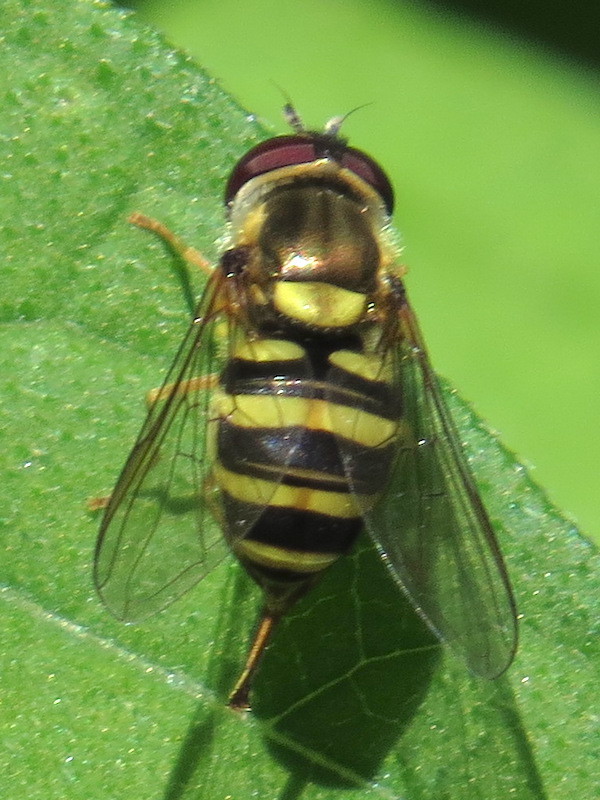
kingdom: Animalia
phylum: Arthropoda
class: Insecta
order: Diptera
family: Syrphidae
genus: Syrphus
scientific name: Syrphus
